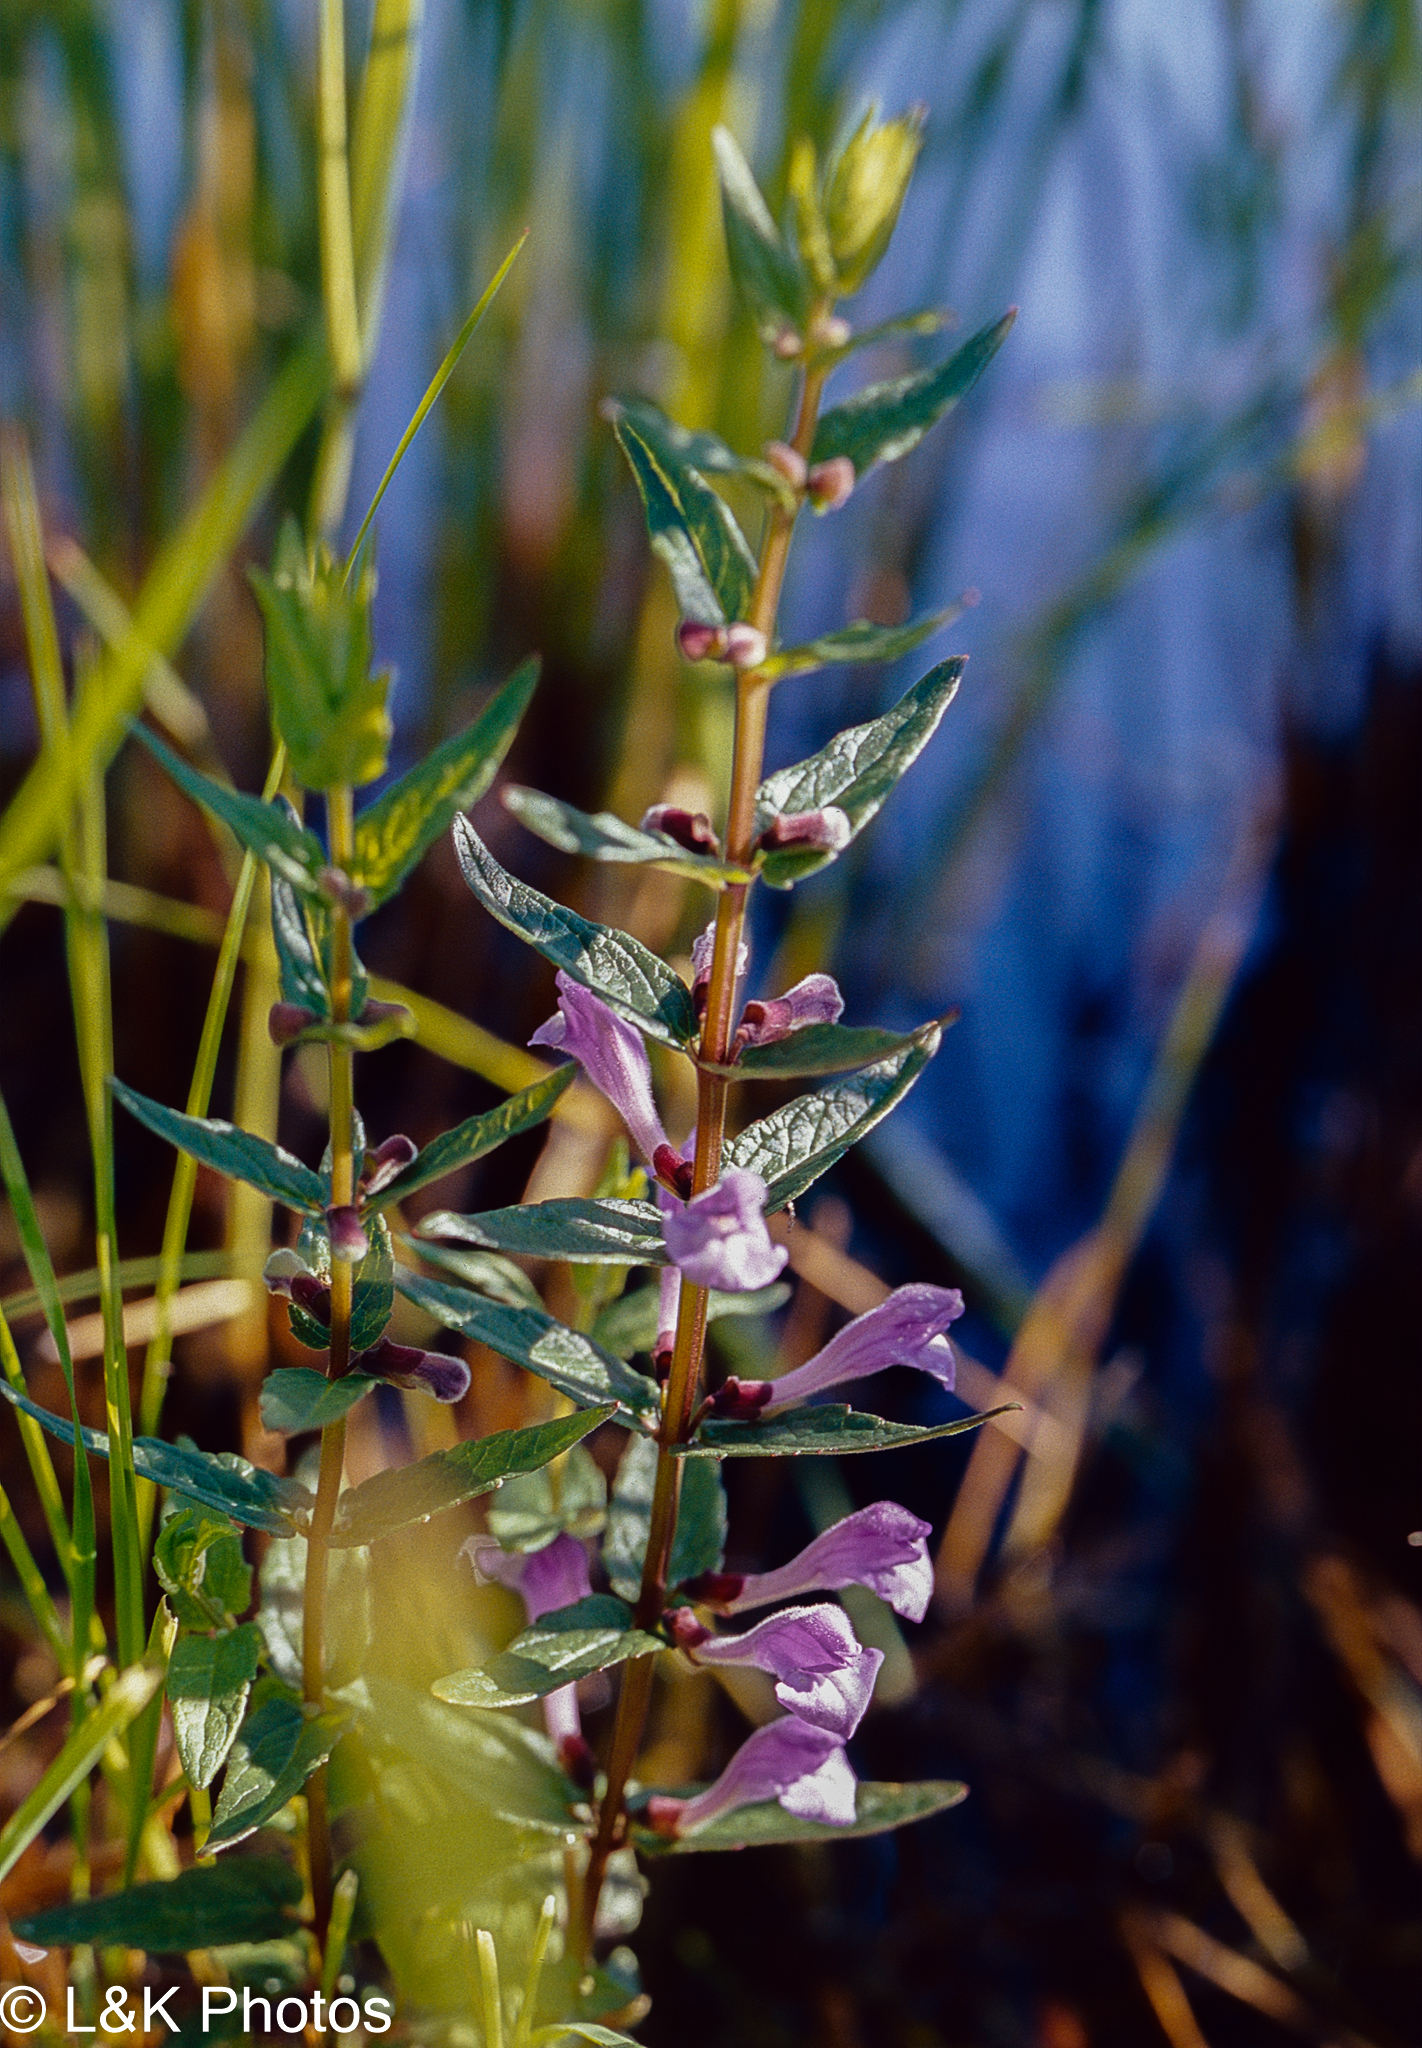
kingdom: Plantae
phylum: Tracheophyta
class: Magnoliopsida
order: Lamiales
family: Lamiaceae
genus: Scutellaria
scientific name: Scutellaria galericulata
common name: Skullcap
